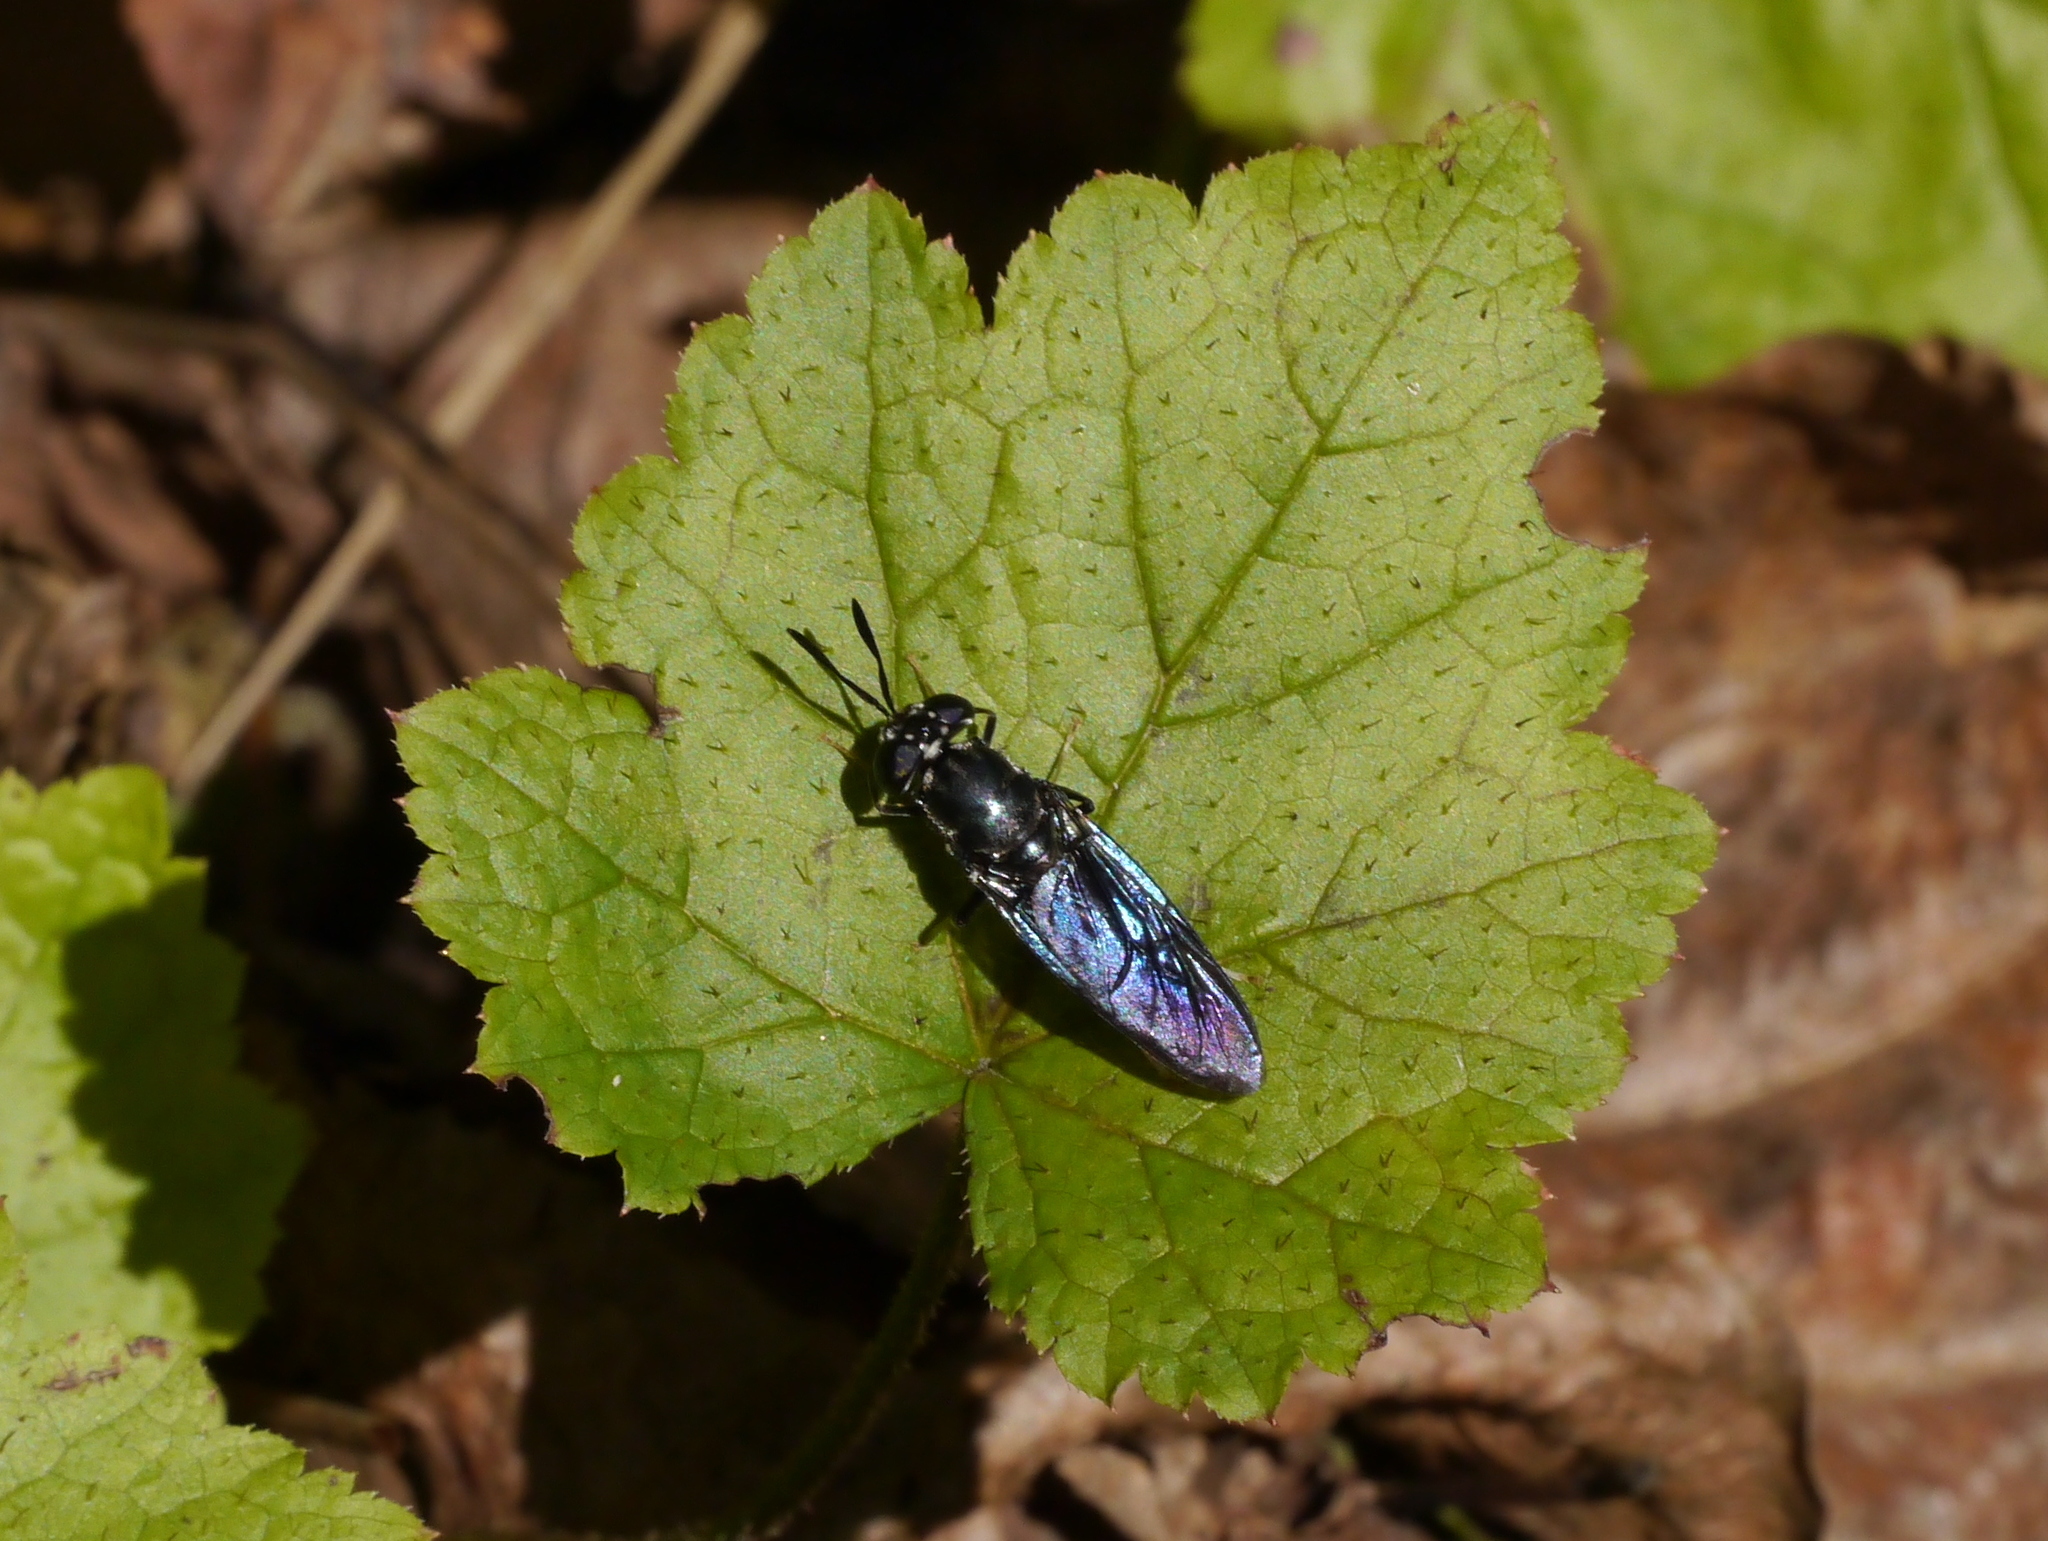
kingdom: Animalia
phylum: Arthropoda
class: Insecta
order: Diptera
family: Stratiomyidae
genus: Hermetia
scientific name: Hermetia illucens
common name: Black soldier fly
